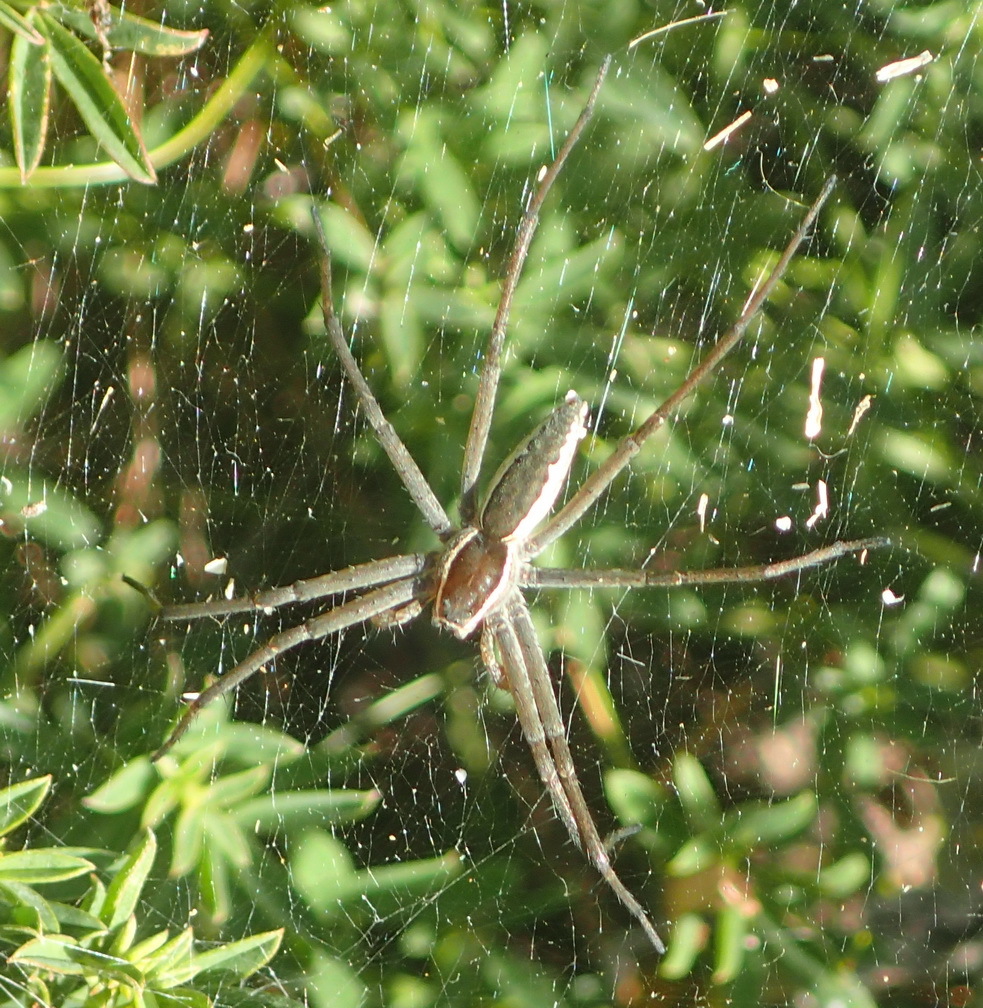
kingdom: Animalia
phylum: Arthropoda
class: Arachnida
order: Araneae
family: Pisauridae
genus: Euprosthenopsis
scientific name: Euprosthenopsis pulchella
